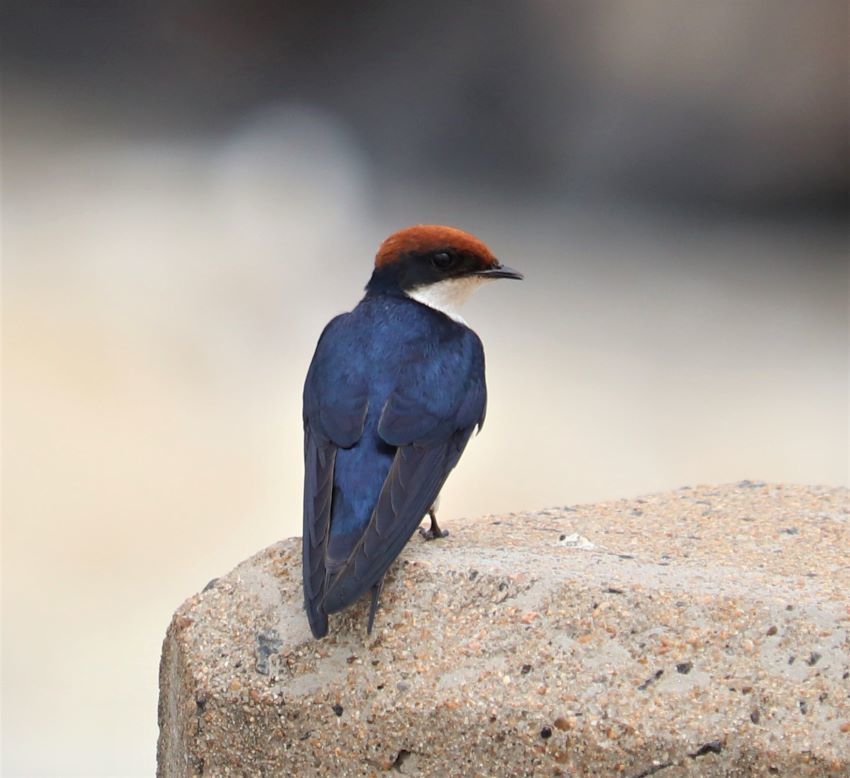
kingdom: Animalia
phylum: Chordata
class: Aves
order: Passeriformes
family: Hirundinidae
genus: Hirundo
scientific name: Hirundo smithii
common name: Wire-tailed swallow
